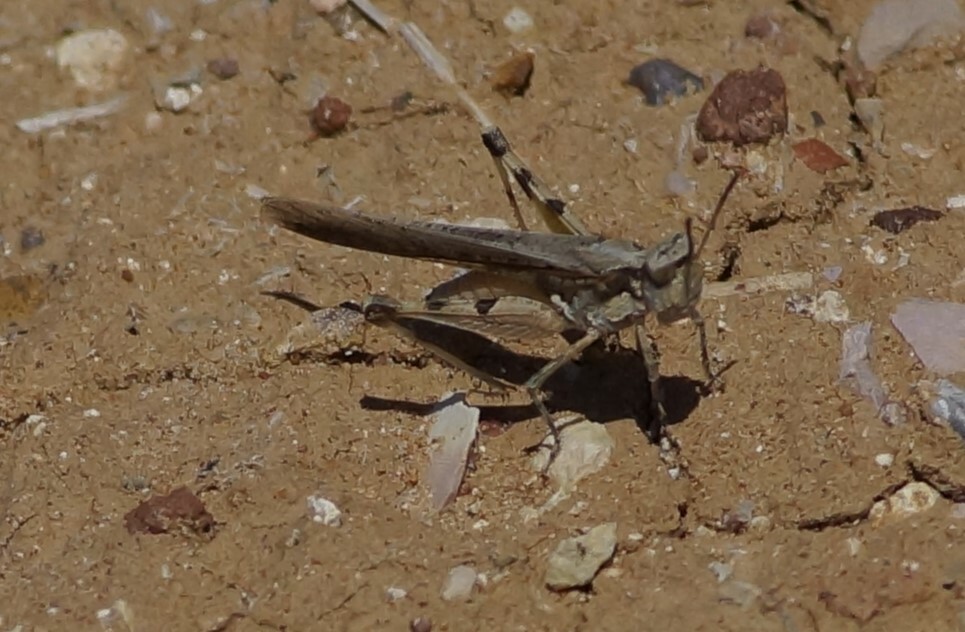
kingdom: Animalia
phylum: Arthropoda
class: Insecta
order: Orthoptera
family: Acrididae
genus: Pycnostictus
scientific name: Pycnostictus seriatus
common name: Common bandwing
